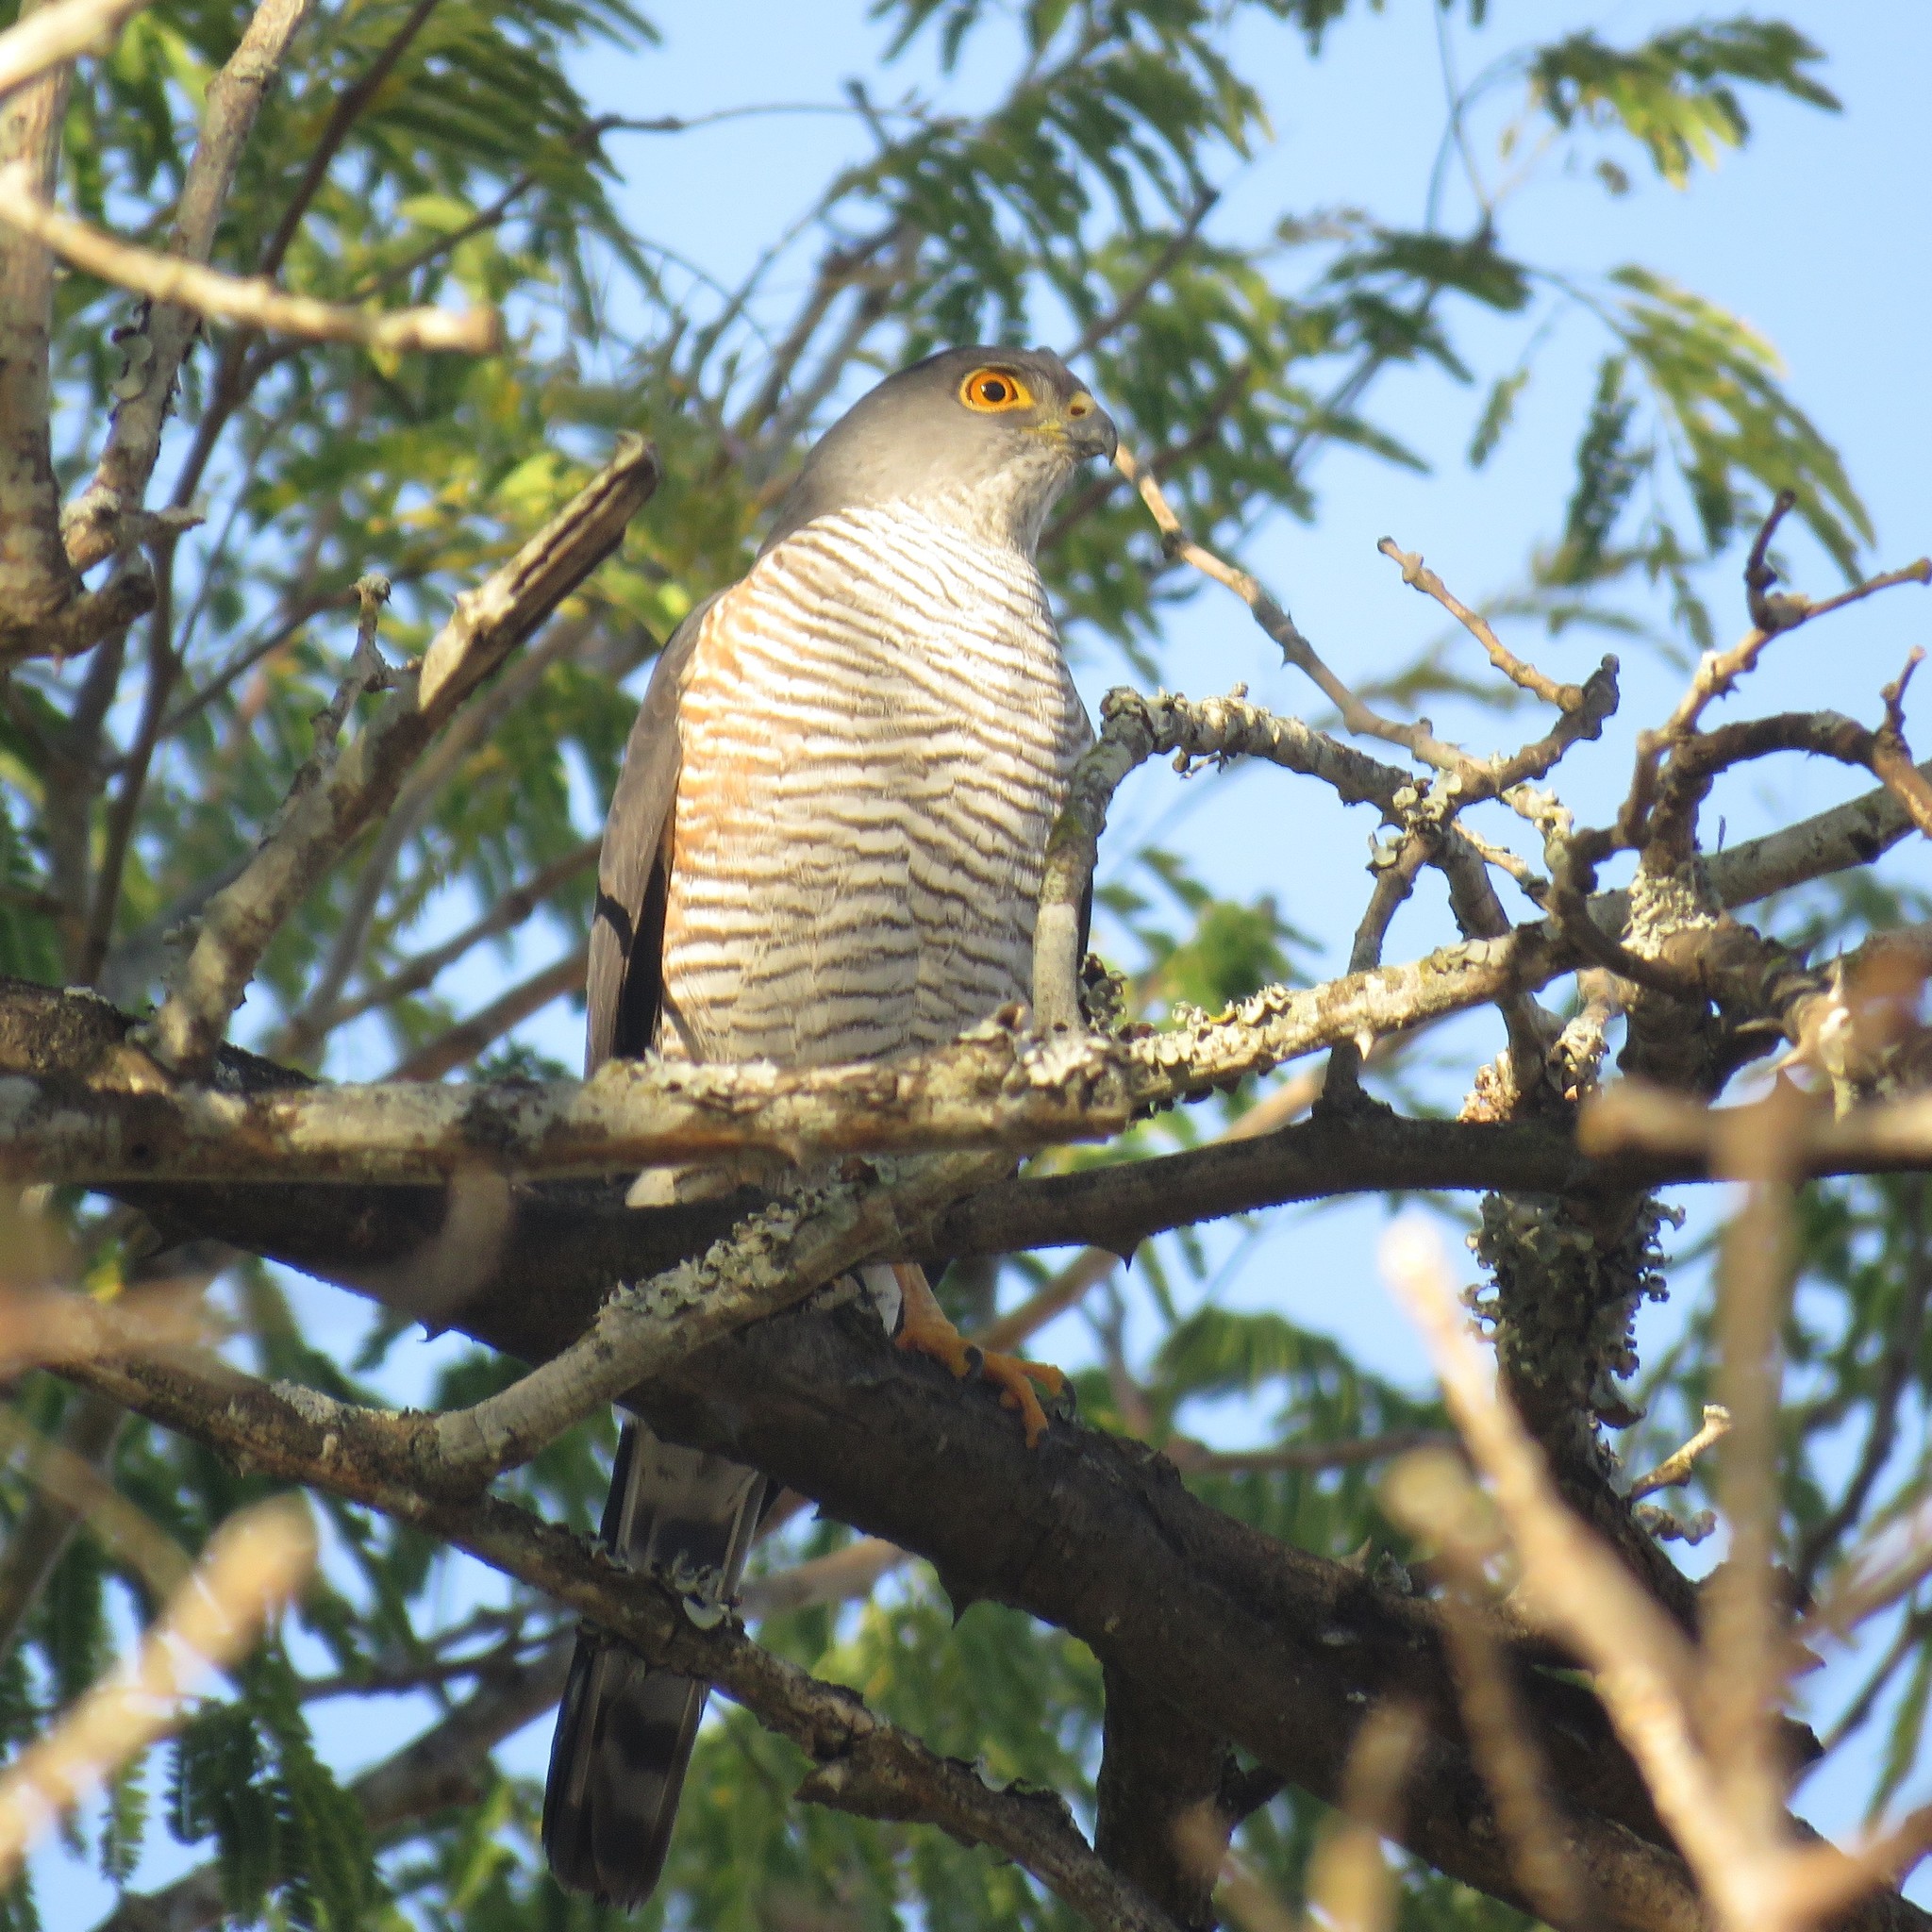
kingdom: Animalia
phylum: Chordata
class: Aves
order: Accipitriformes
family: Accipitridae
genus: Accipiter
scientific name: Accipiter minullus
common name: Little sparrowhawk
